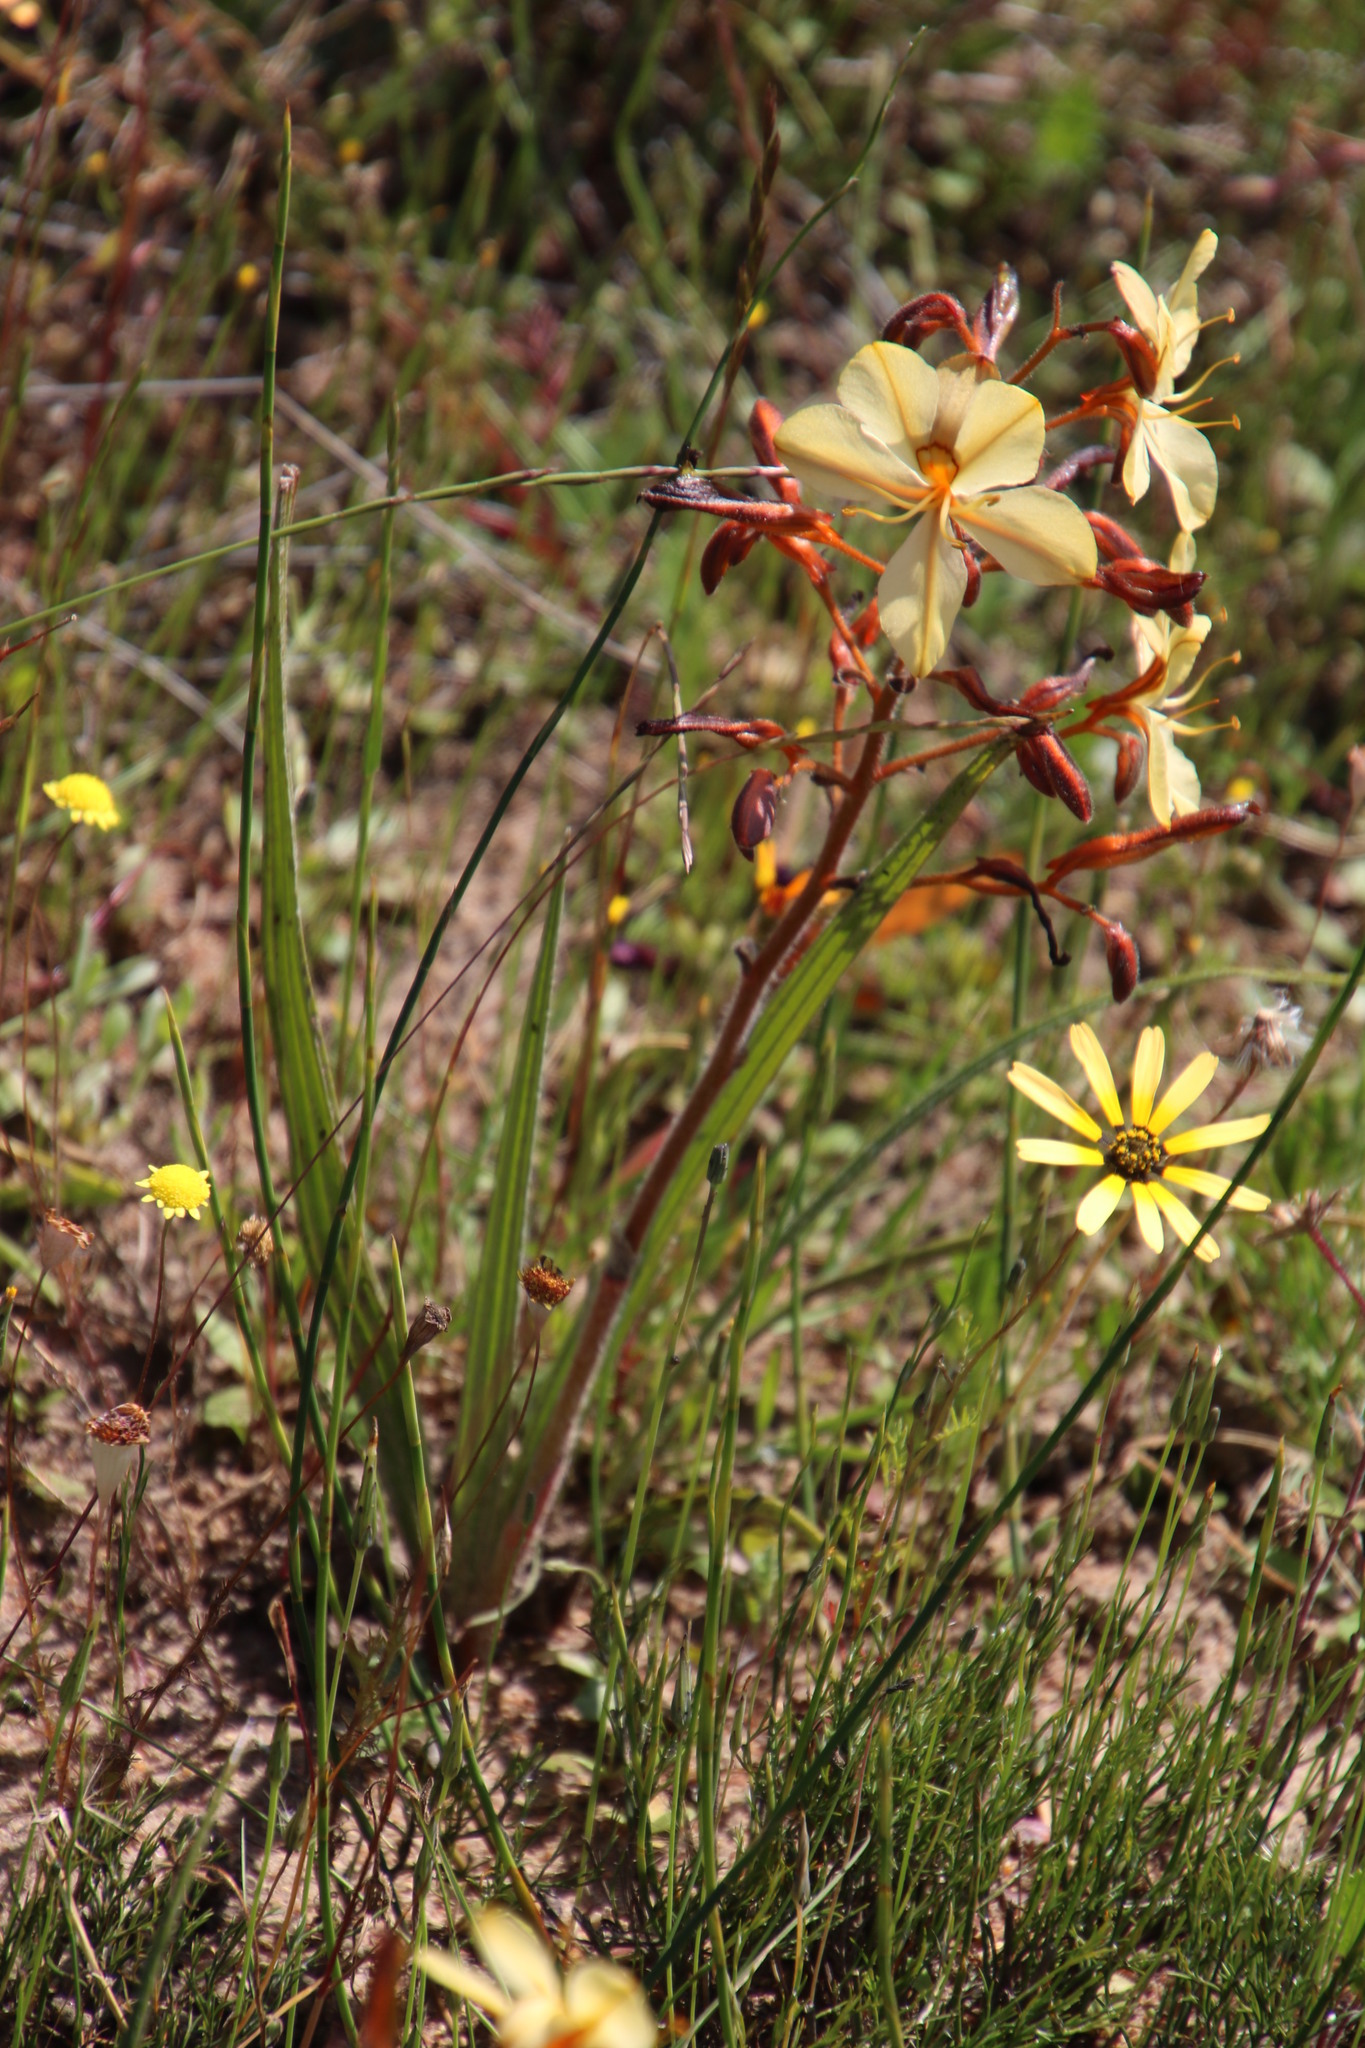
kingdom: Plantae
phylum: Tracheophyta
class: Liliopsida
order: Commelinales
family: Haemodoraceae
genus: Wachendorfia
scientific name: Wachendorfia paniculata
